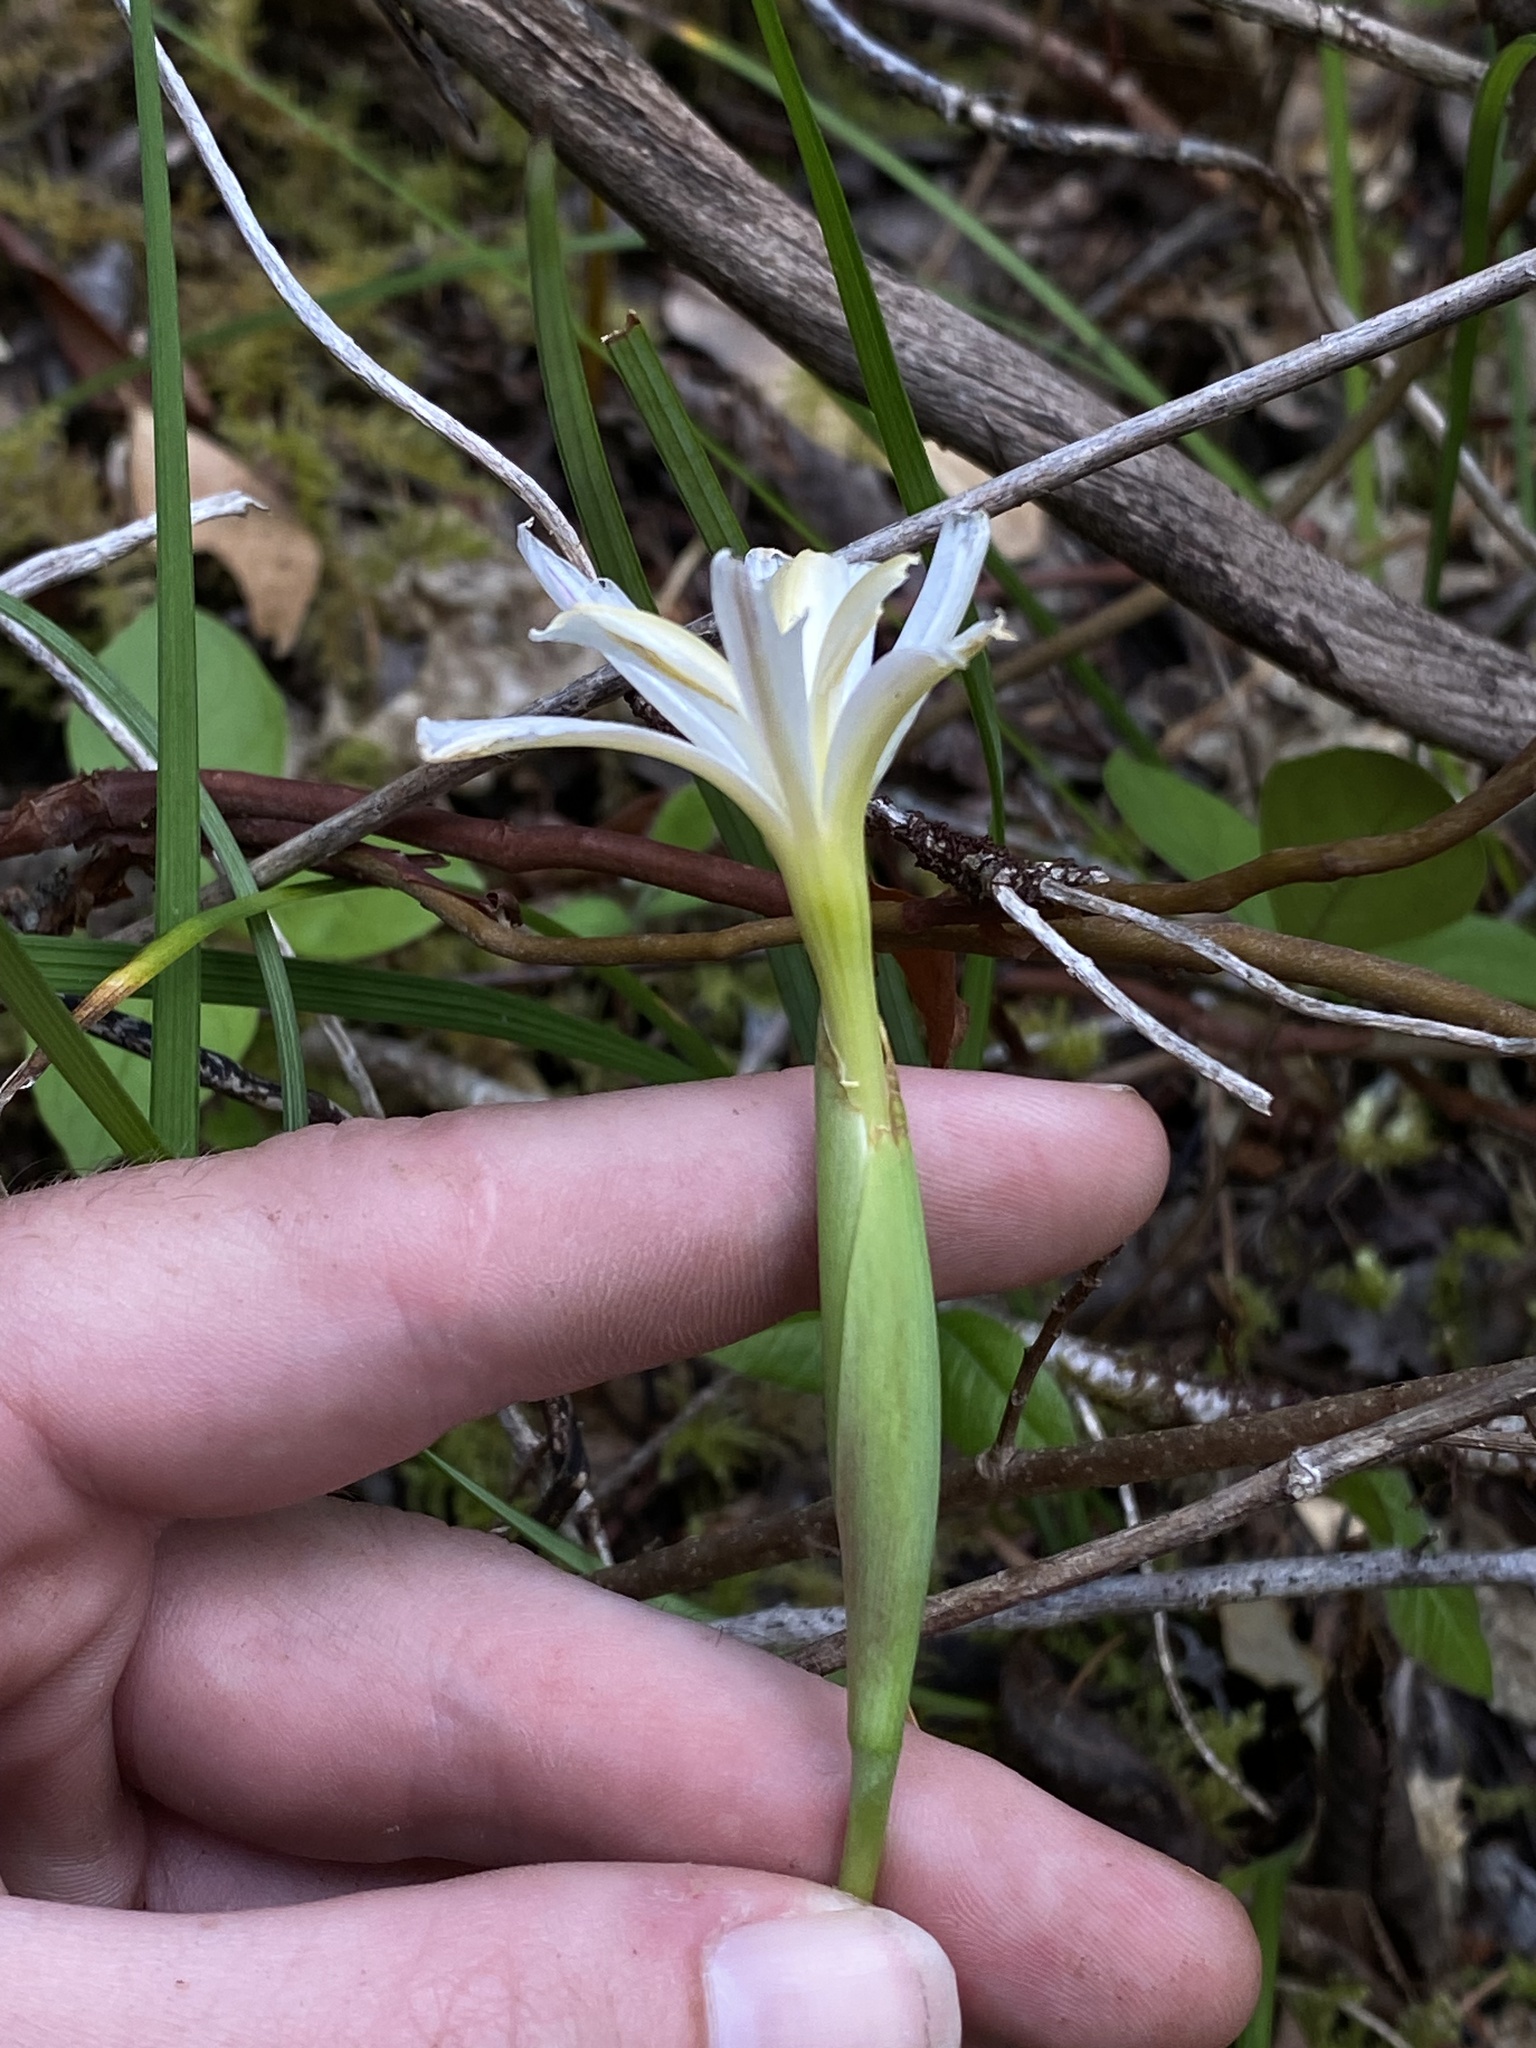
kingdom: Plantae
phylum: Tracheophyta
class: Liliopsida
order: Asparagales
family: Iridaceae
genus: Iris
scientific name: Iris thompsonii
